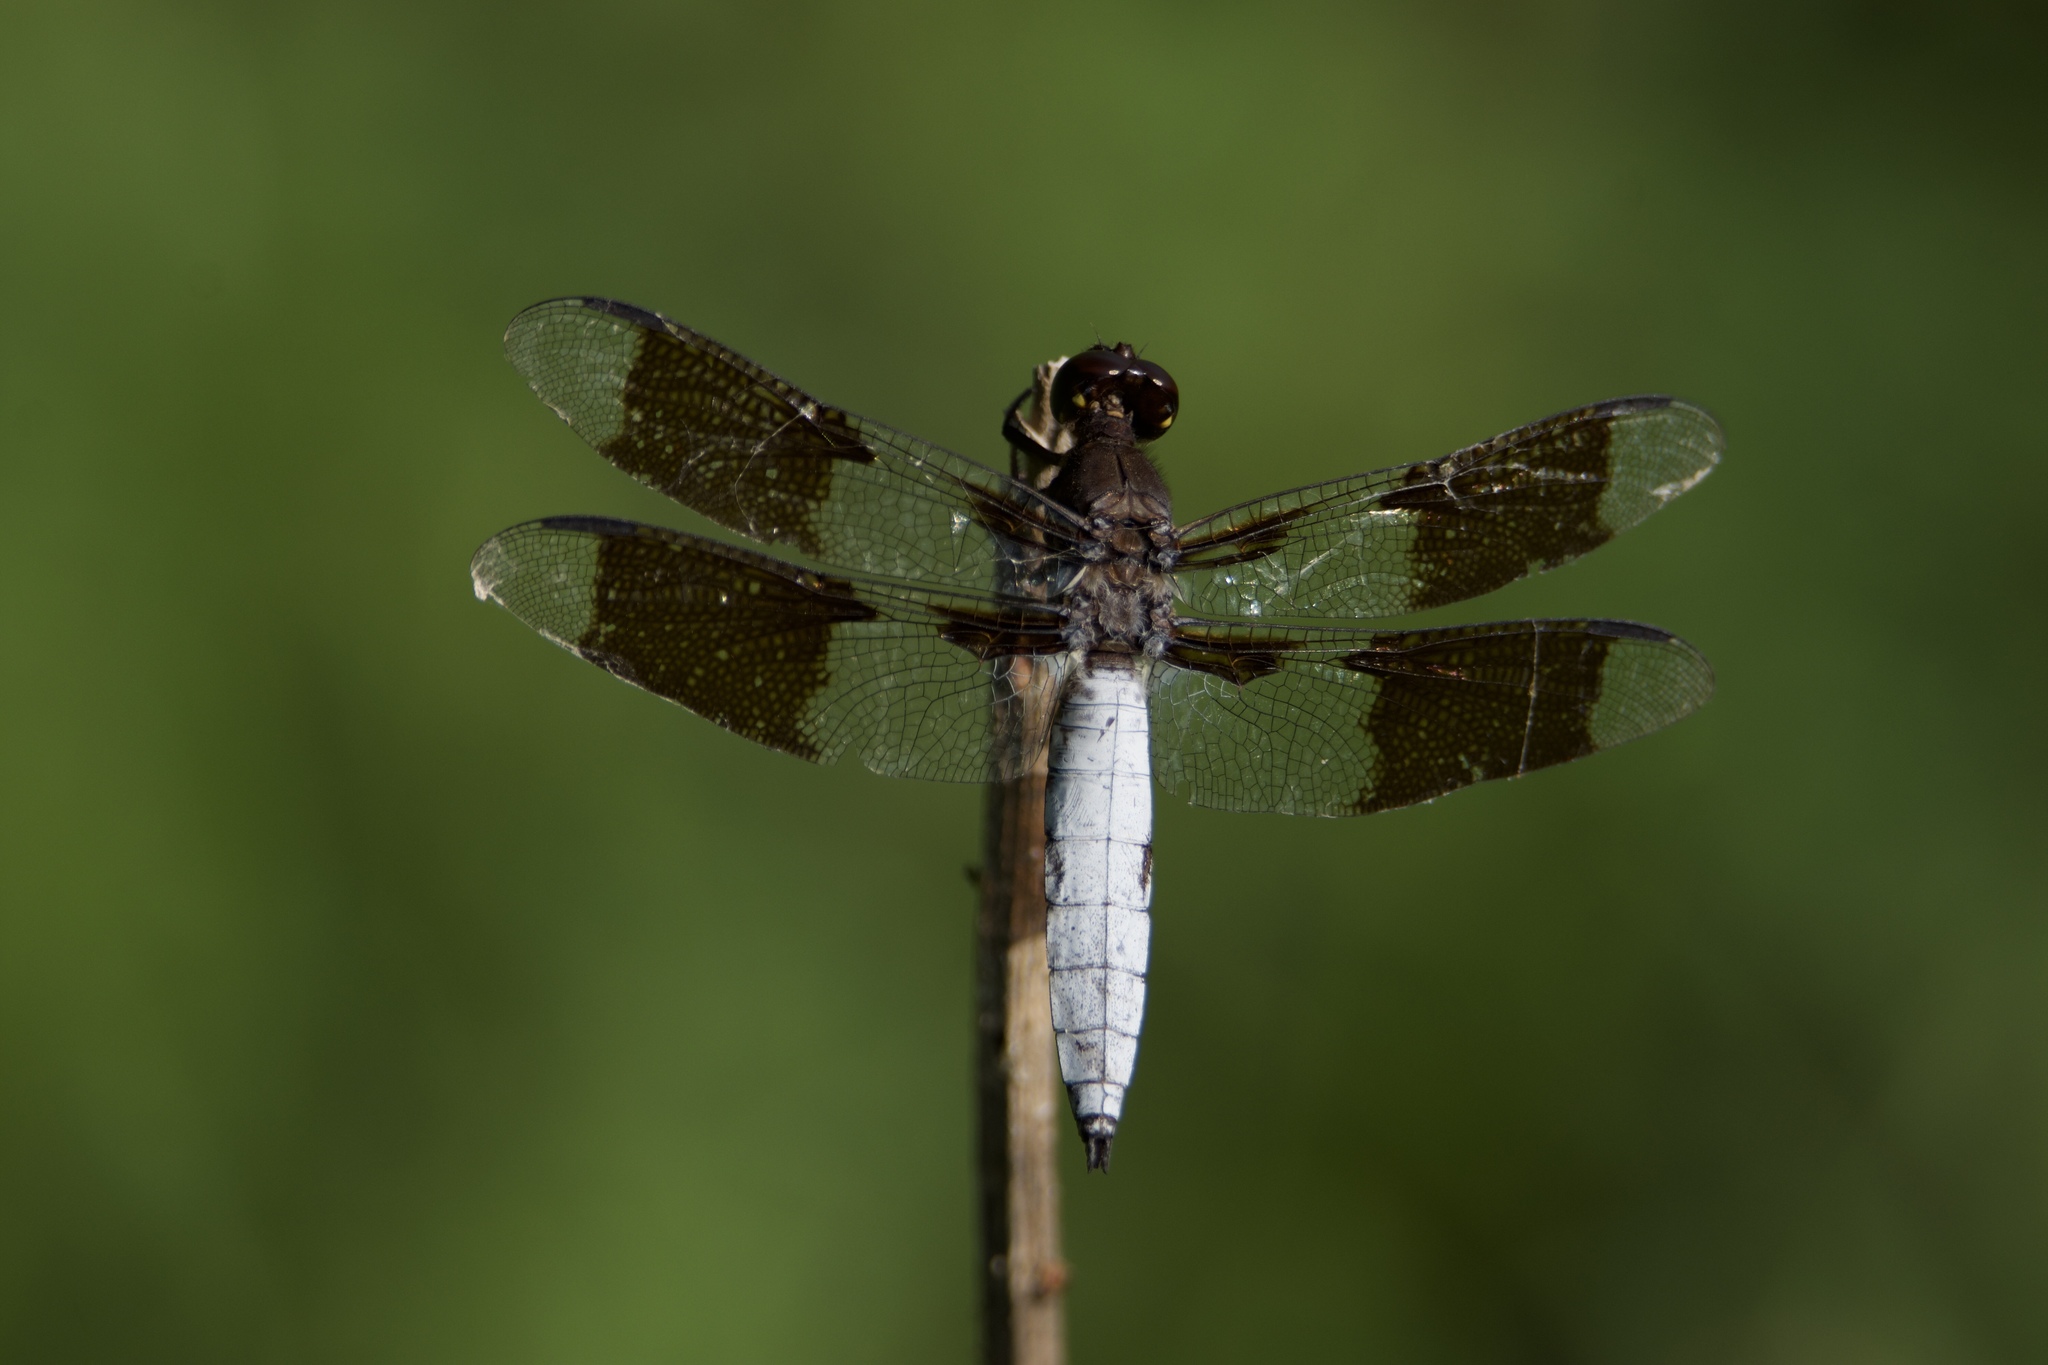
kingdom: Animalia
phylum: Arthropoda
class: Insecta
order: Odonata
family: Libellulidae
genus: Plathemis
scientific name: Plathemis lydia
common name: Common whitetail
